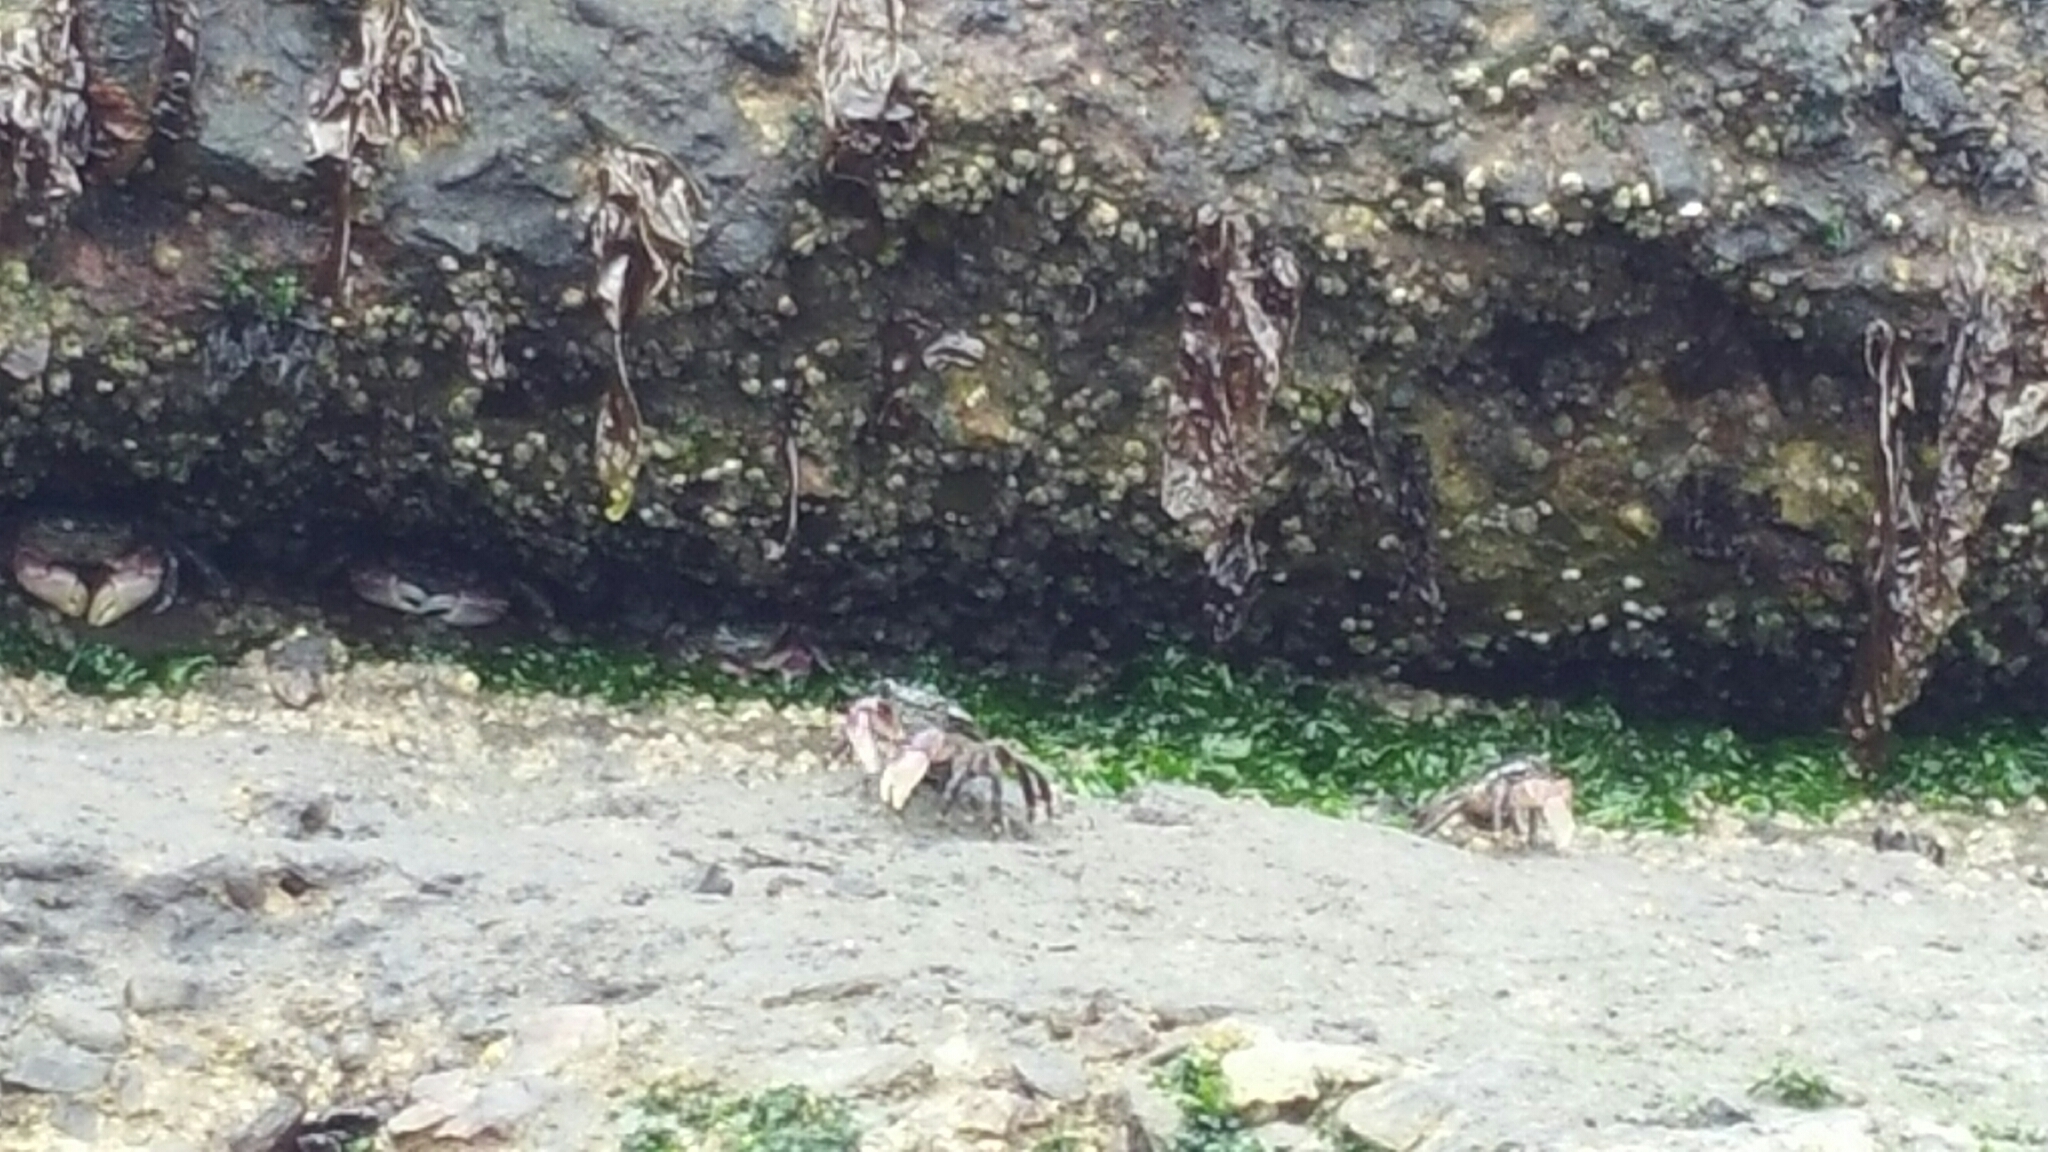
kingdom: Animalia
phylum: Arthropoda
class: Malacostraca
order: Decapoda
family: Grapsidae
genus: Pachygrapsus
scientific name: Pachygrapsus crassipes
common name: Striped shore crab
